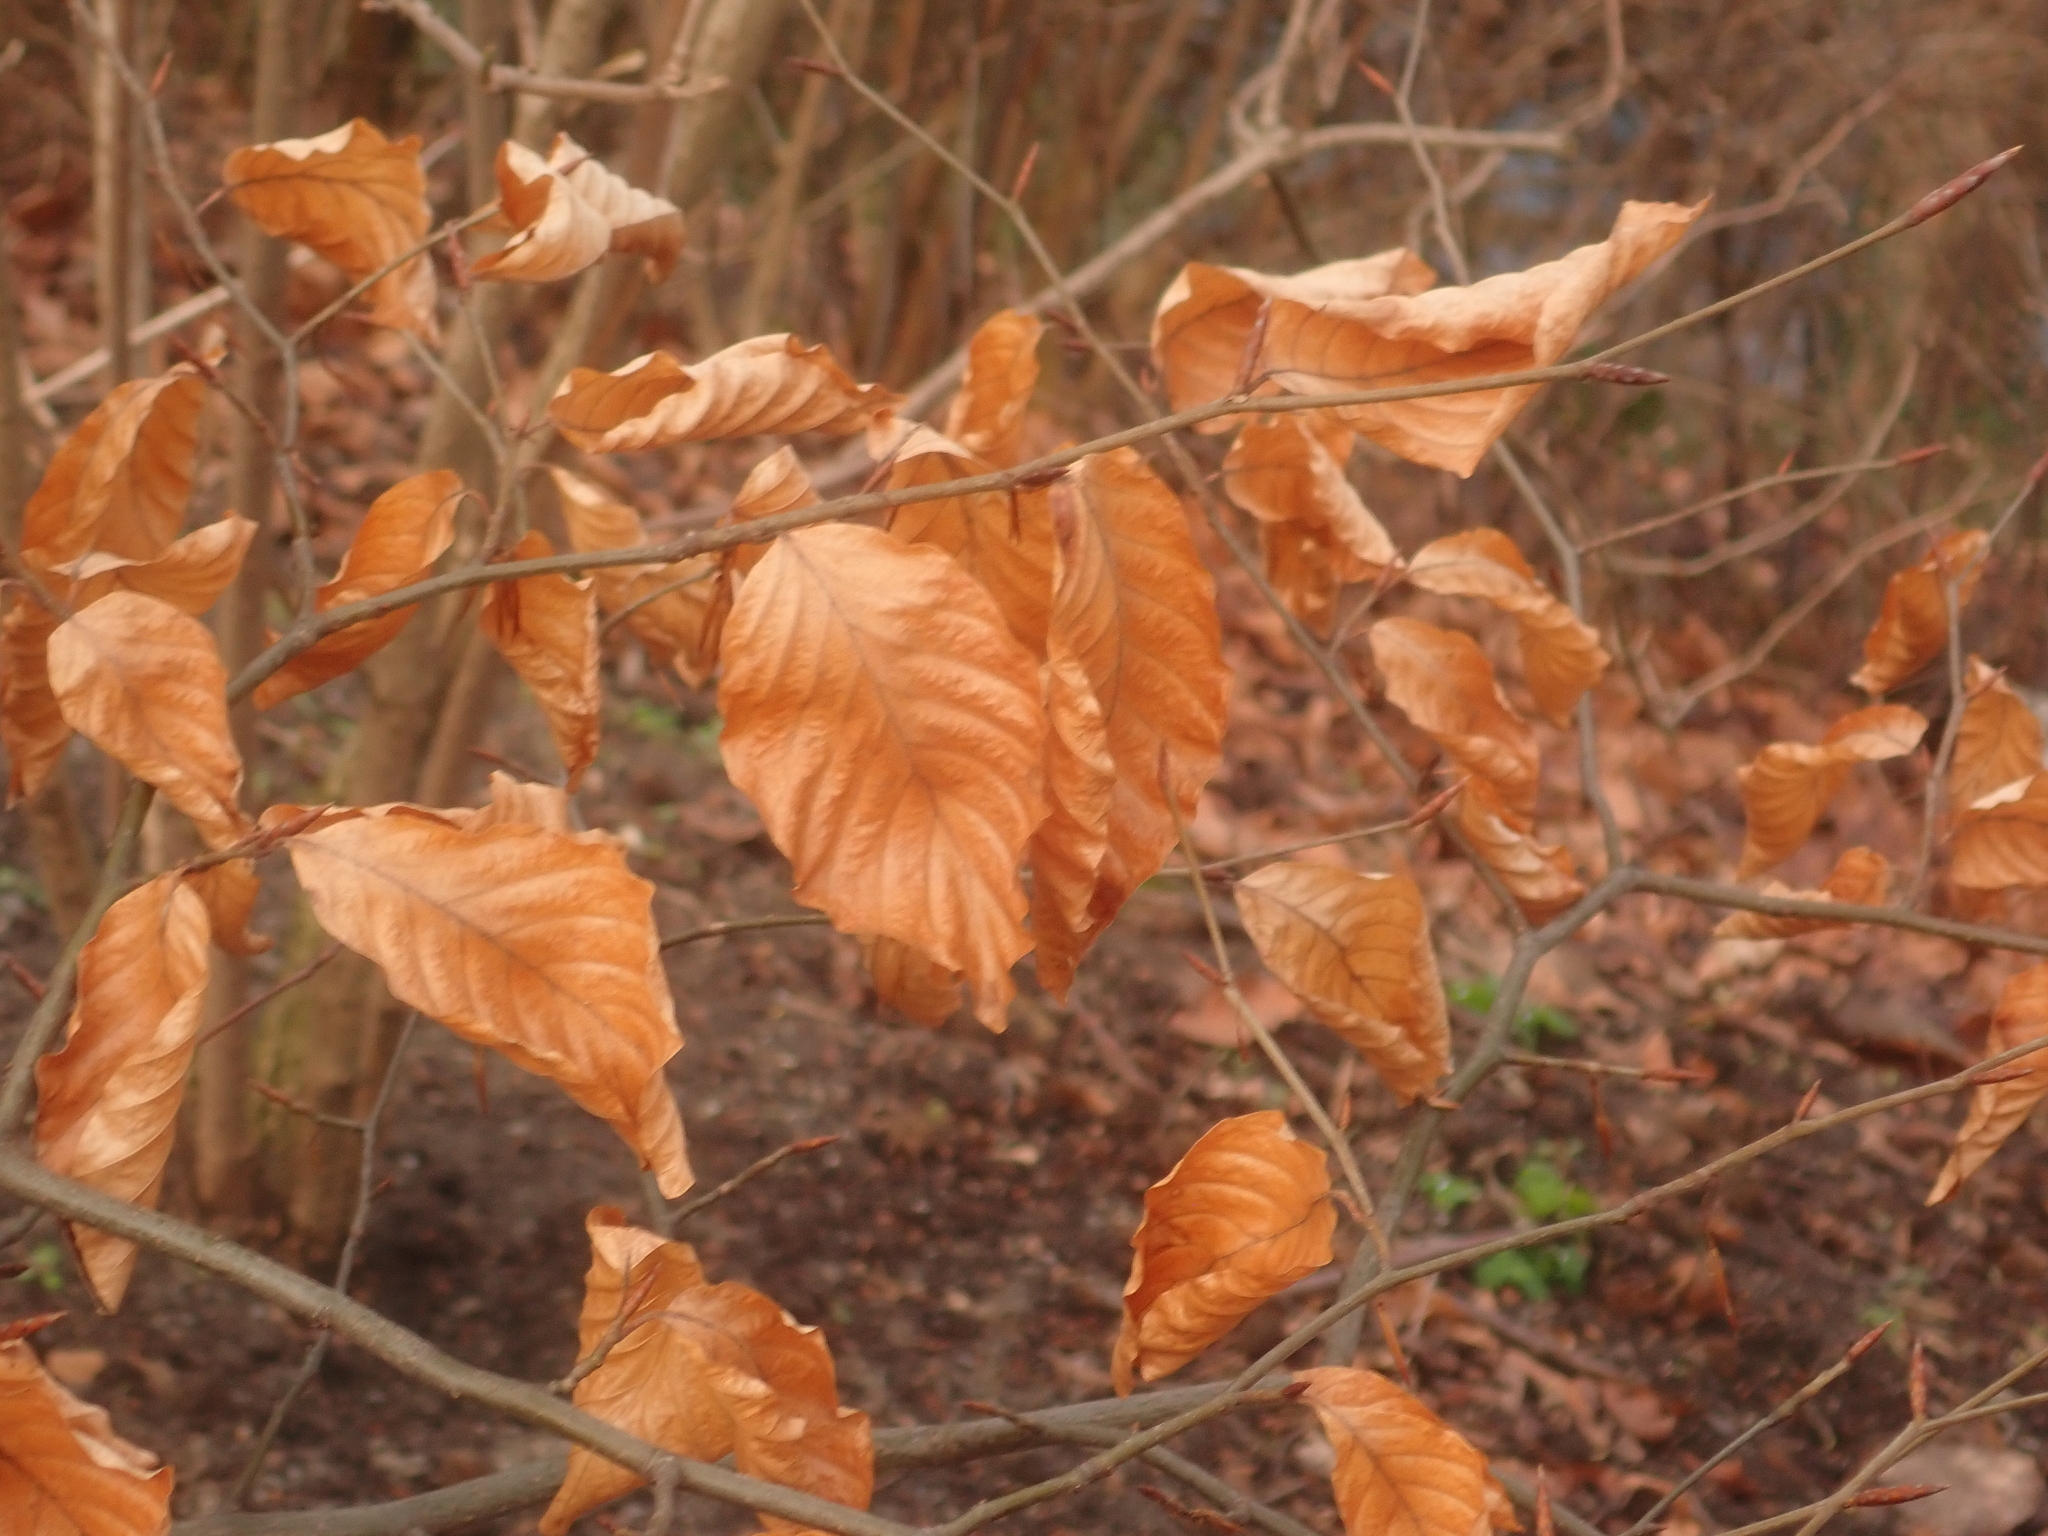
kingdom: Plantae
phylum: Tracheophyta
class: Magnoliopsida
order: Fagales
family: Fagaceae
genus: Fagus
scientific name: Fagus sylvatica
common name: Beech
